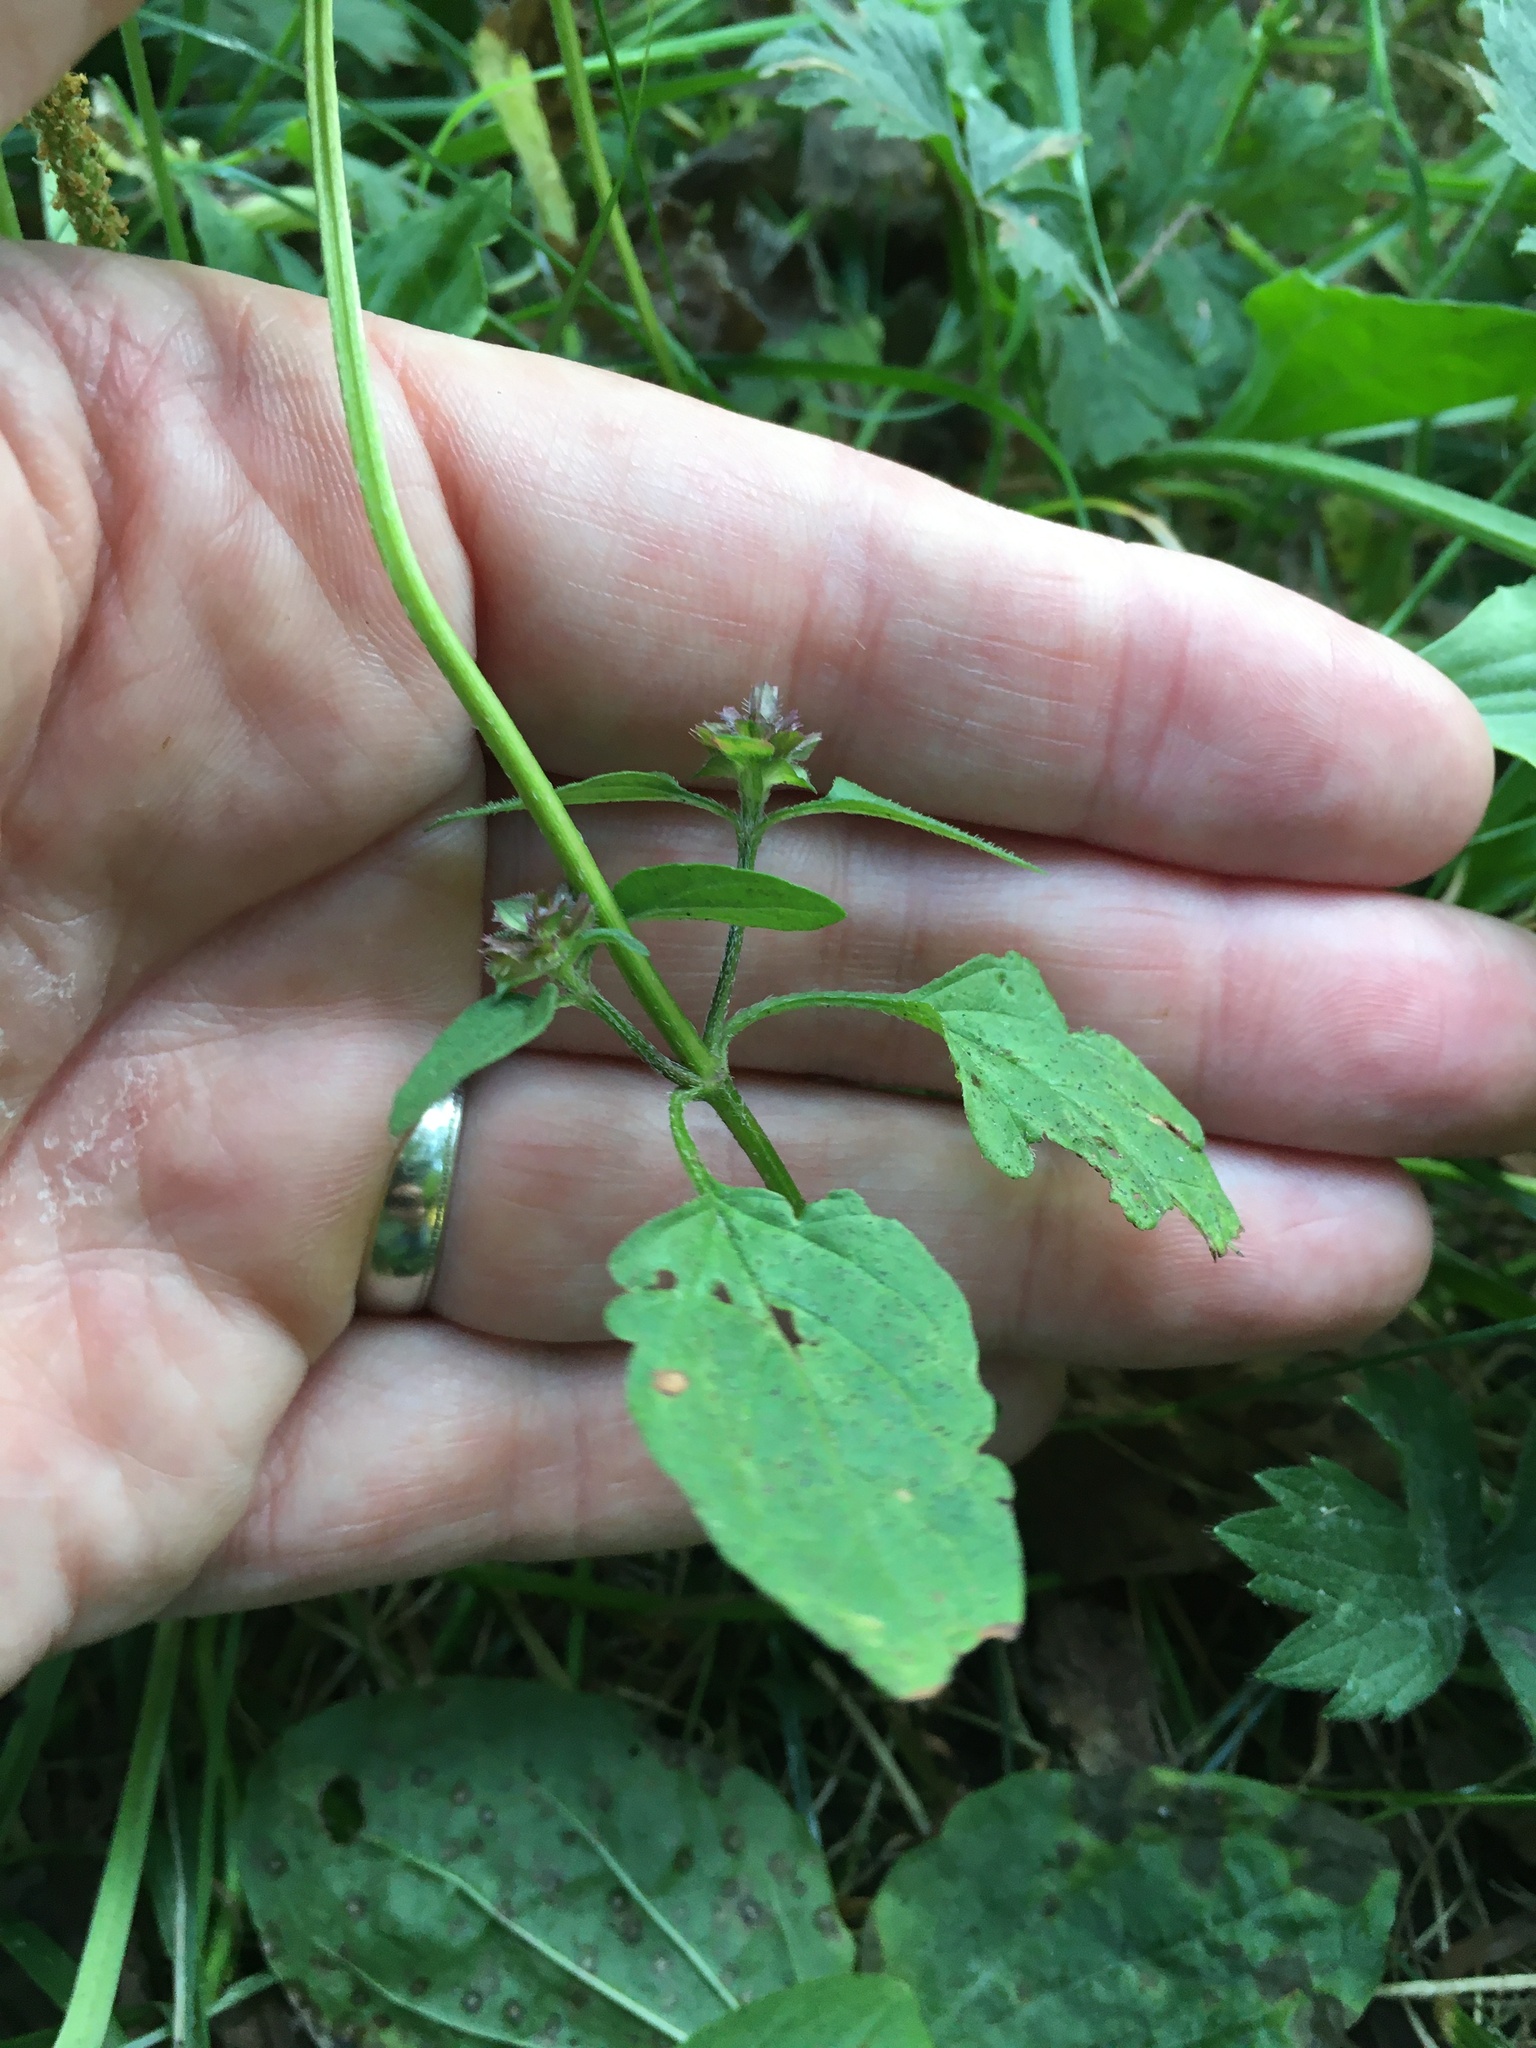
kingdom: Plantae
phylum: Tracheophyta
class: Magnoliopsida
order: Lamiales
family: Lamiaceae
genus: Prunella
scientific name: Prunella vulgaris
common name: Heal-all
